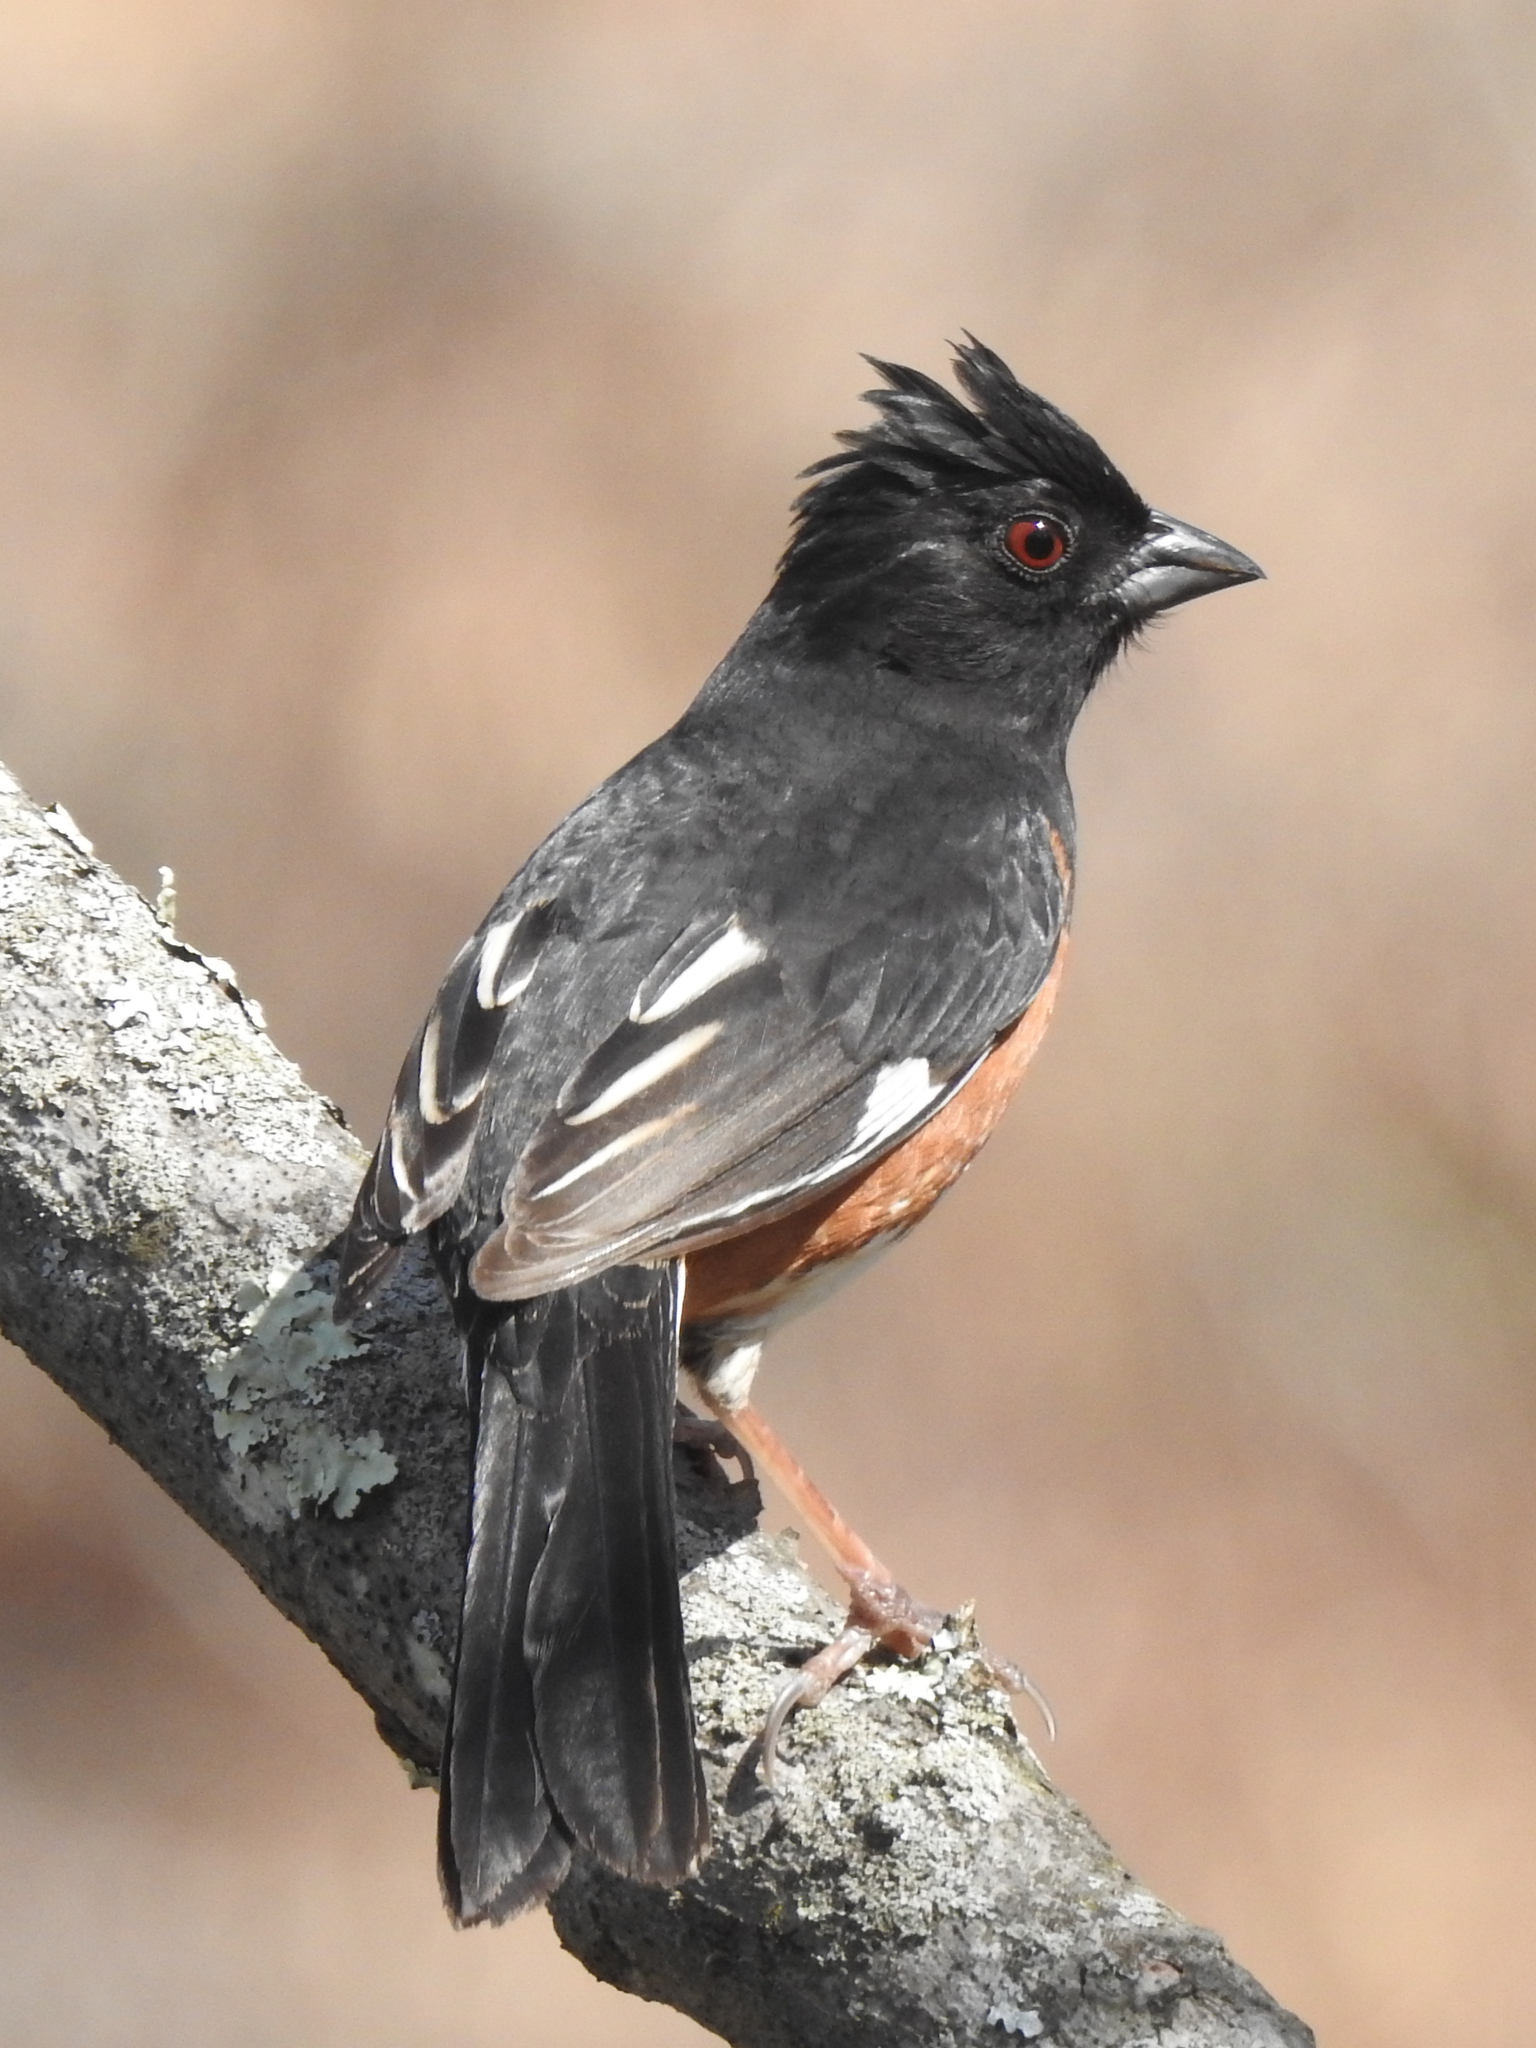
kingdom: Animalia
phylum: Chordata
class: Aves
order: Passeriformes
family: Passerellidae
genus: Pipilo
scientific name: Pipilo erythrophthalmus
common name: Eastern towhee
